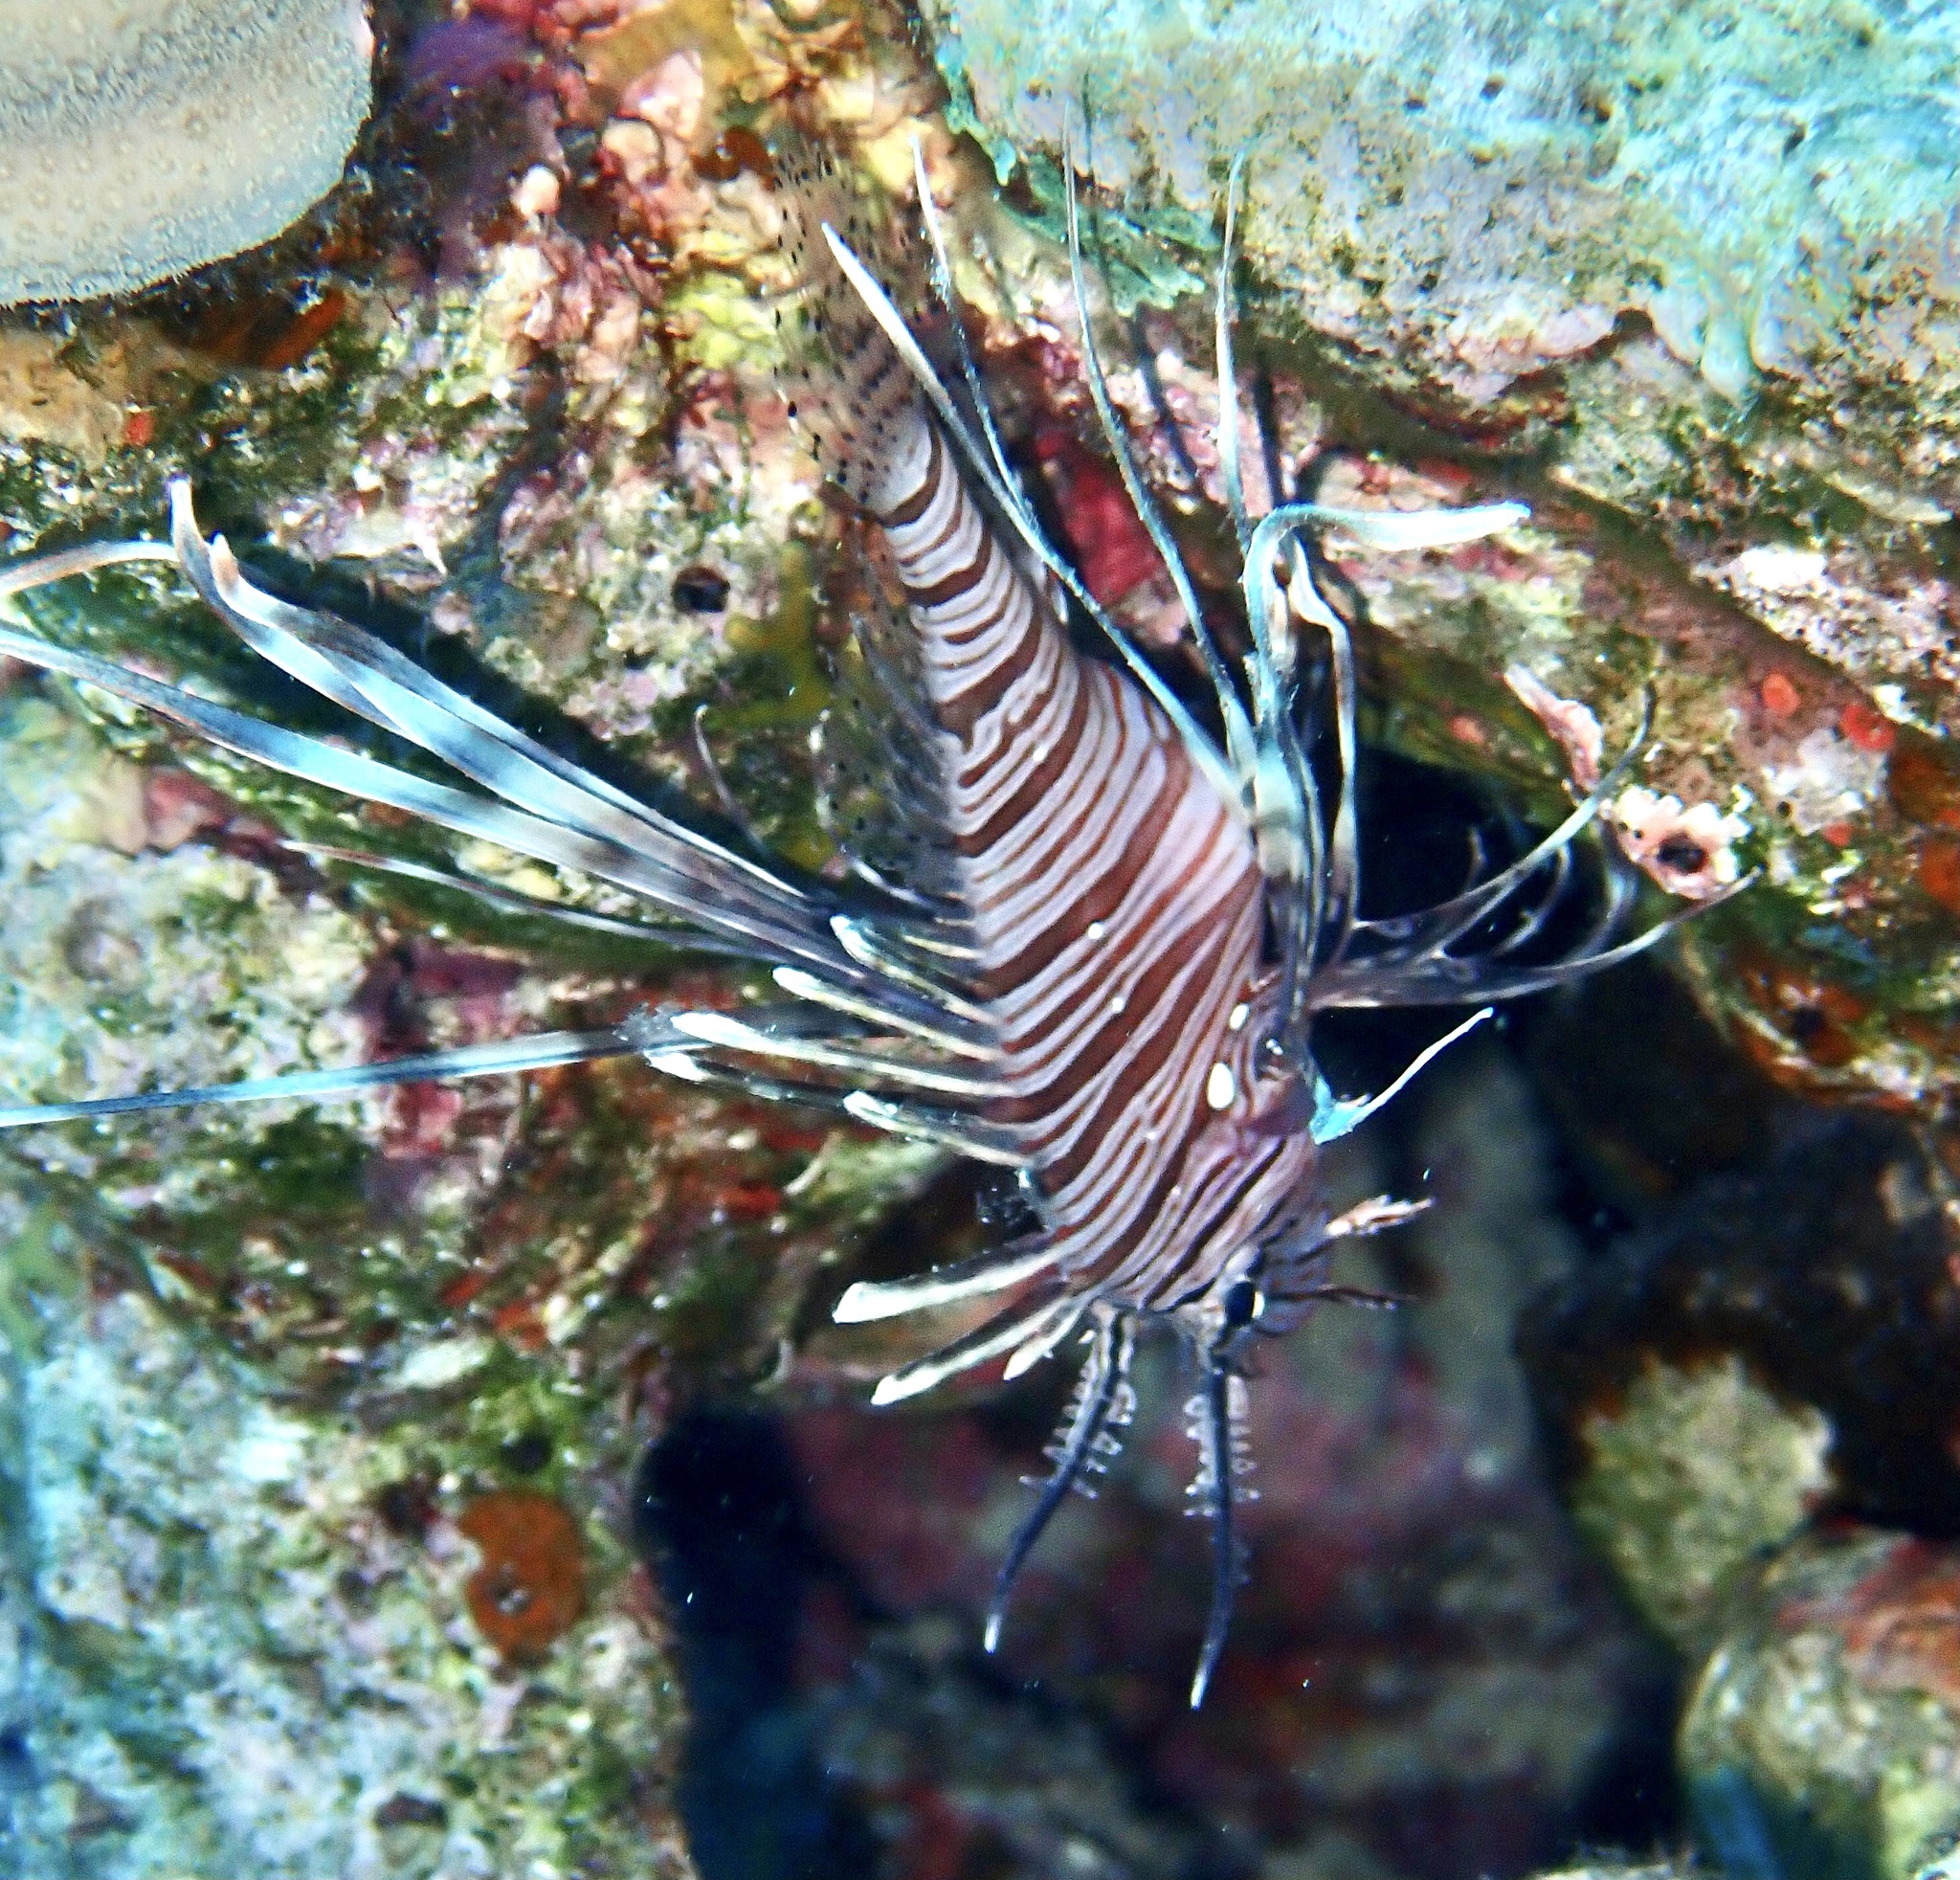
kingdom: Animalia
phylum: Chordata
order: Scorpaeniformes
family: Scorpaenidae
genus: Pterois
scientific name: Pterois miles
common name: Devil firefish
